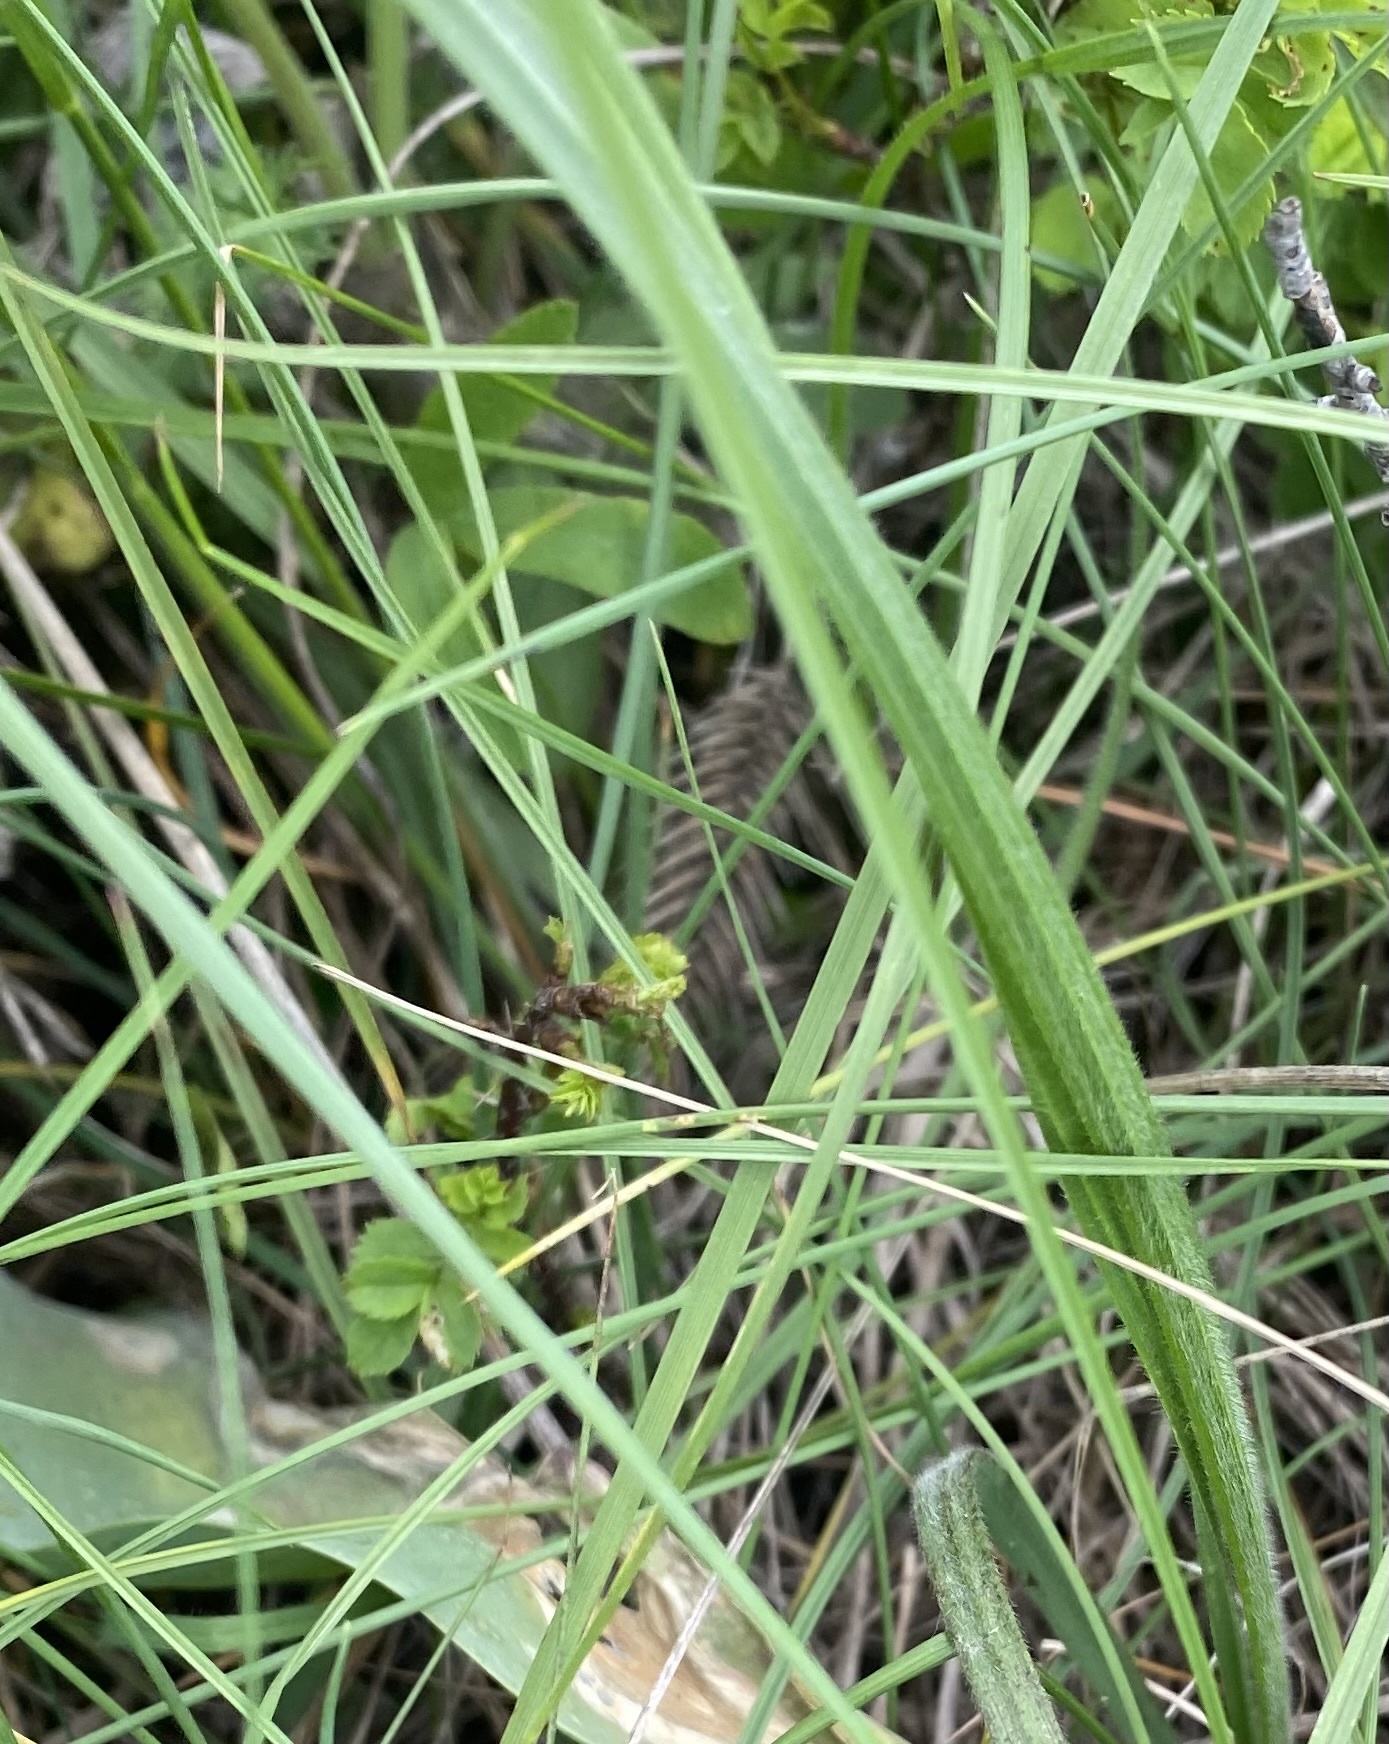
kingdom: Plantae
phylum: Tracheophyta
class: Liliopsida
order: Poales
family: Poaceae
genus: Agropyron
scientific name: Agropyron cristatum
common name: Crested wheatgrass
